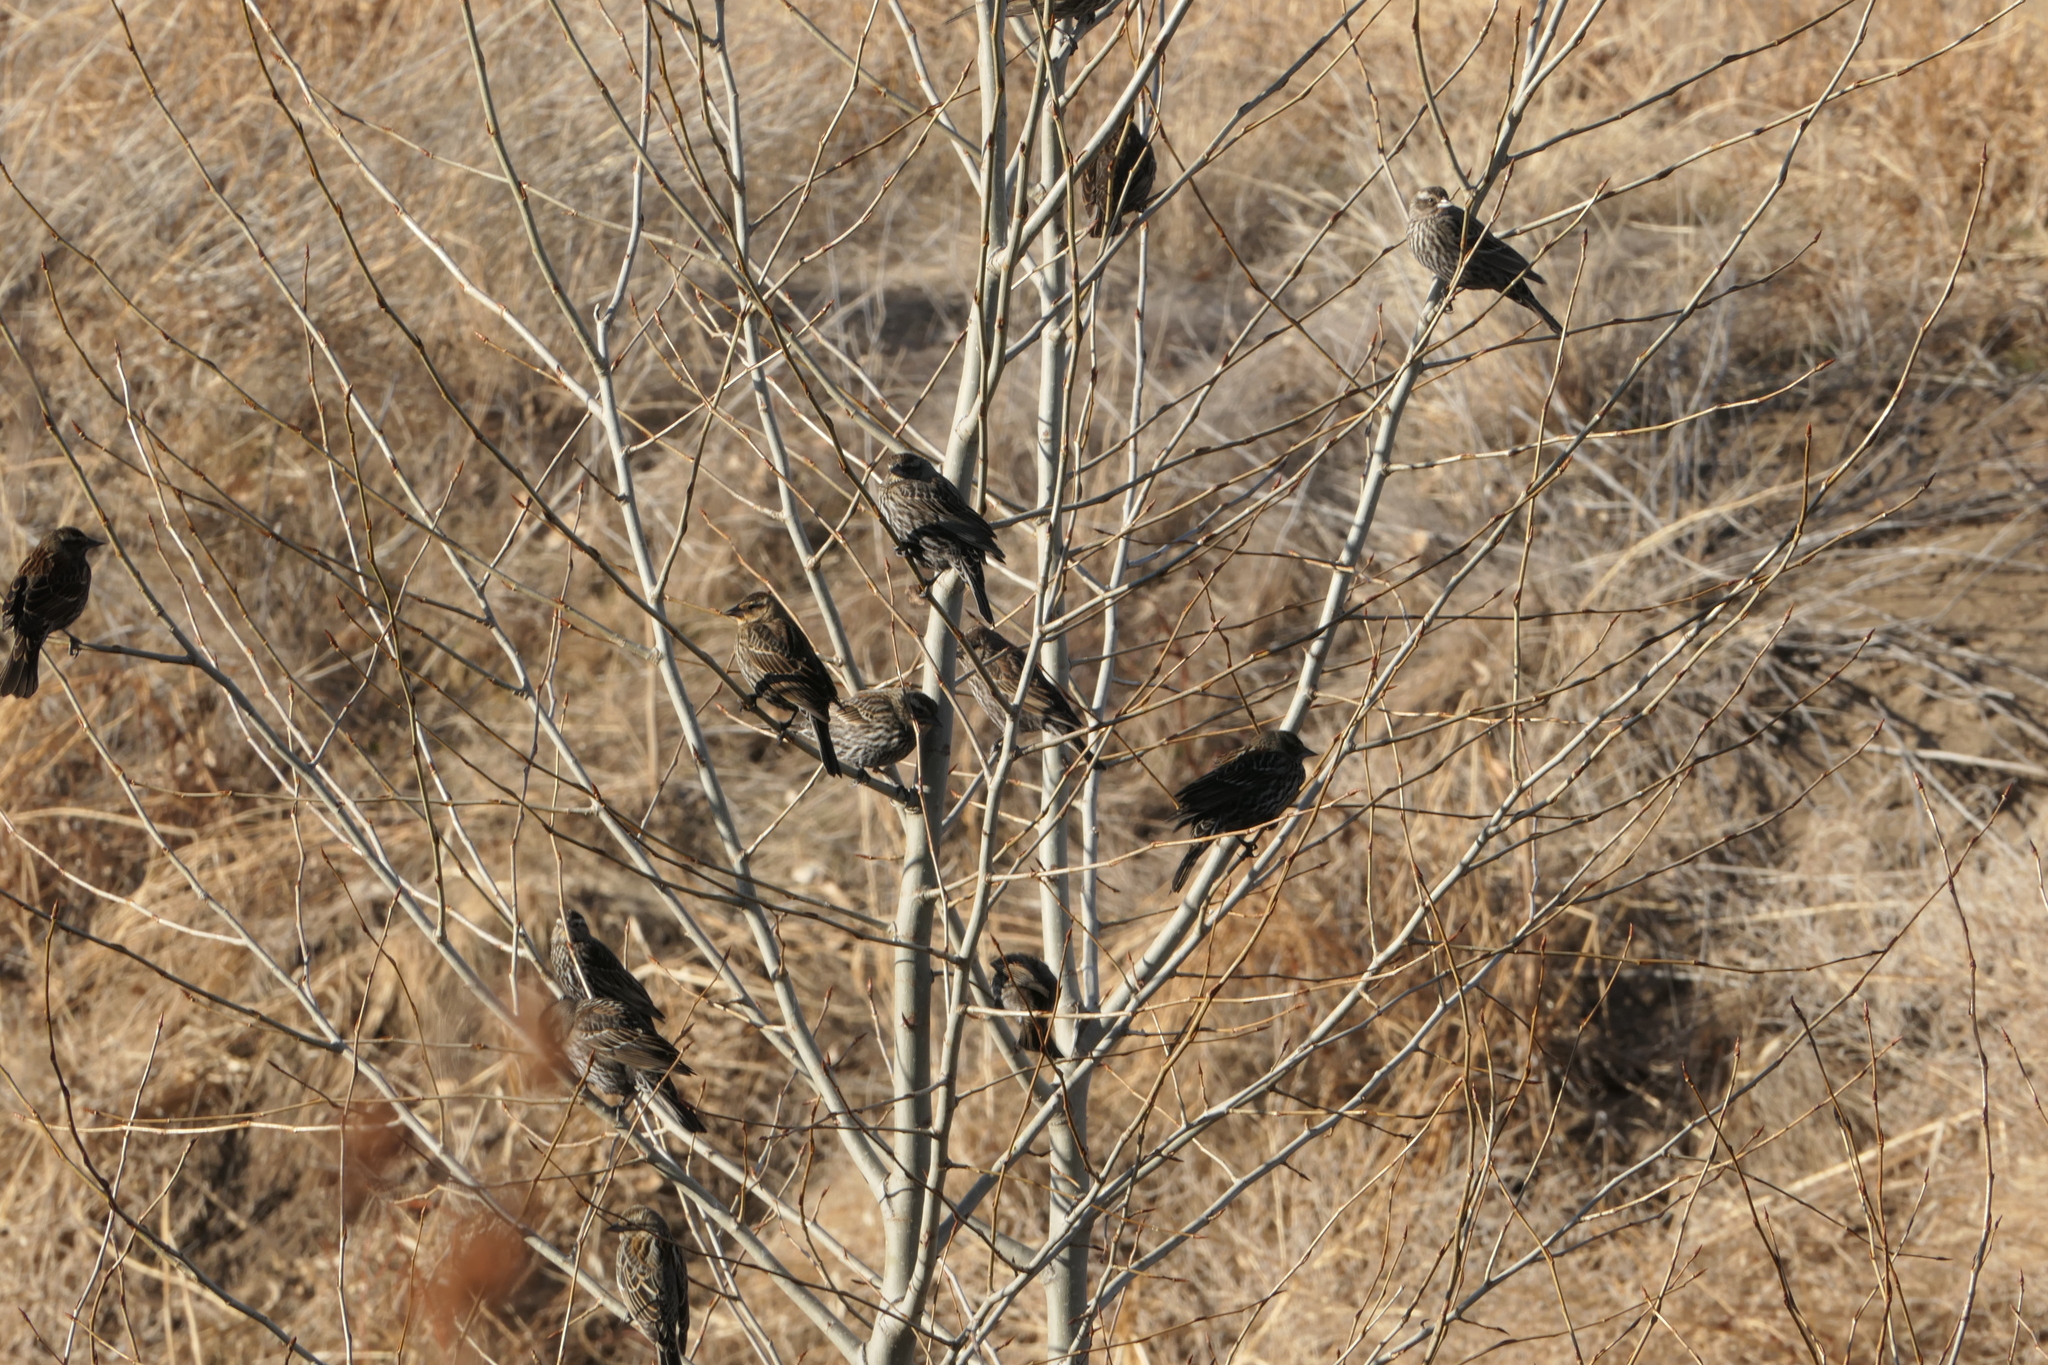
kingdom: Animalia
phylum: Chordata
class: Aves
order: Passeriformes
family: Icteridae
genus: Agelaius
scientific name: Agelaius phoeniceus
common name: Red-winged blackbird
